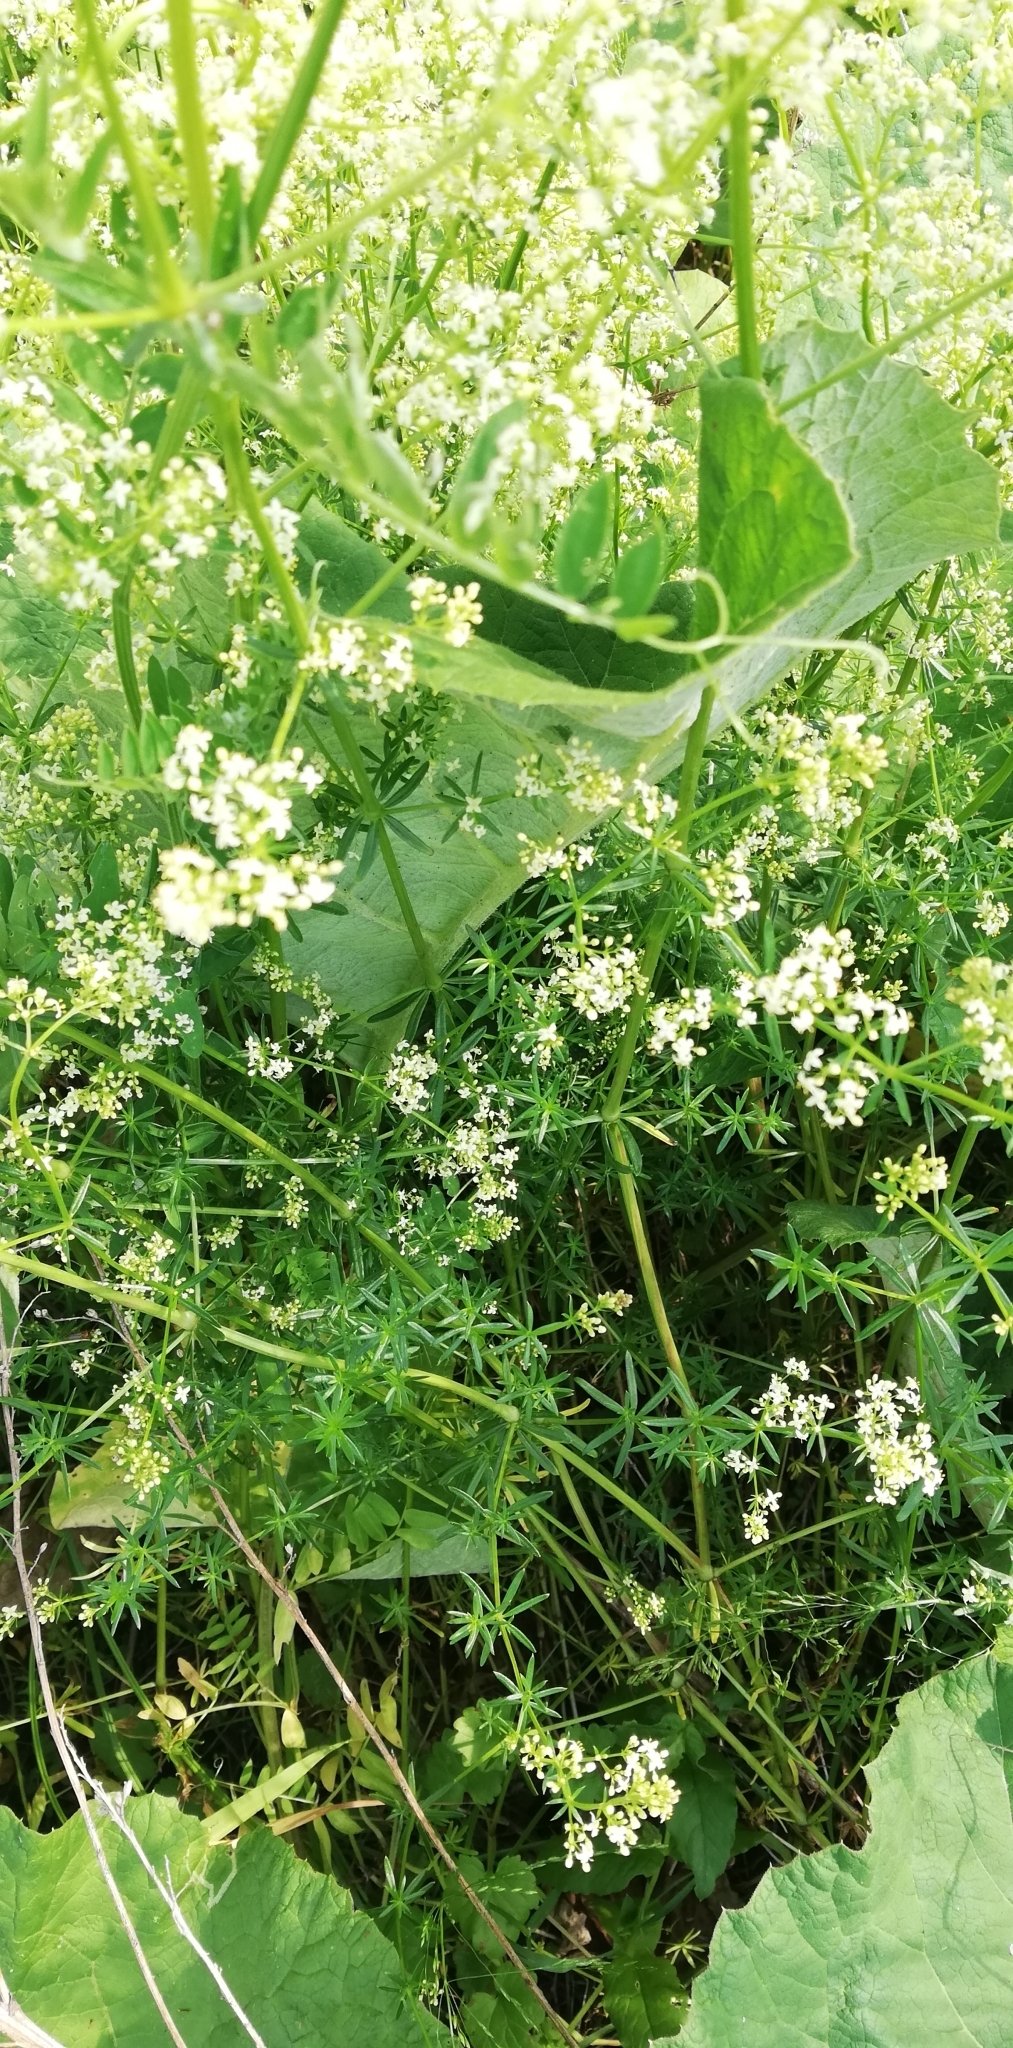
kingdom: Plantae
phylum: Tracheophyta
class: Magnoliopsida
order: Gentianales
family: Rubiaceae
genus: Galium
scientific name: Galium mollugo
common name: Hedge bedstraw
